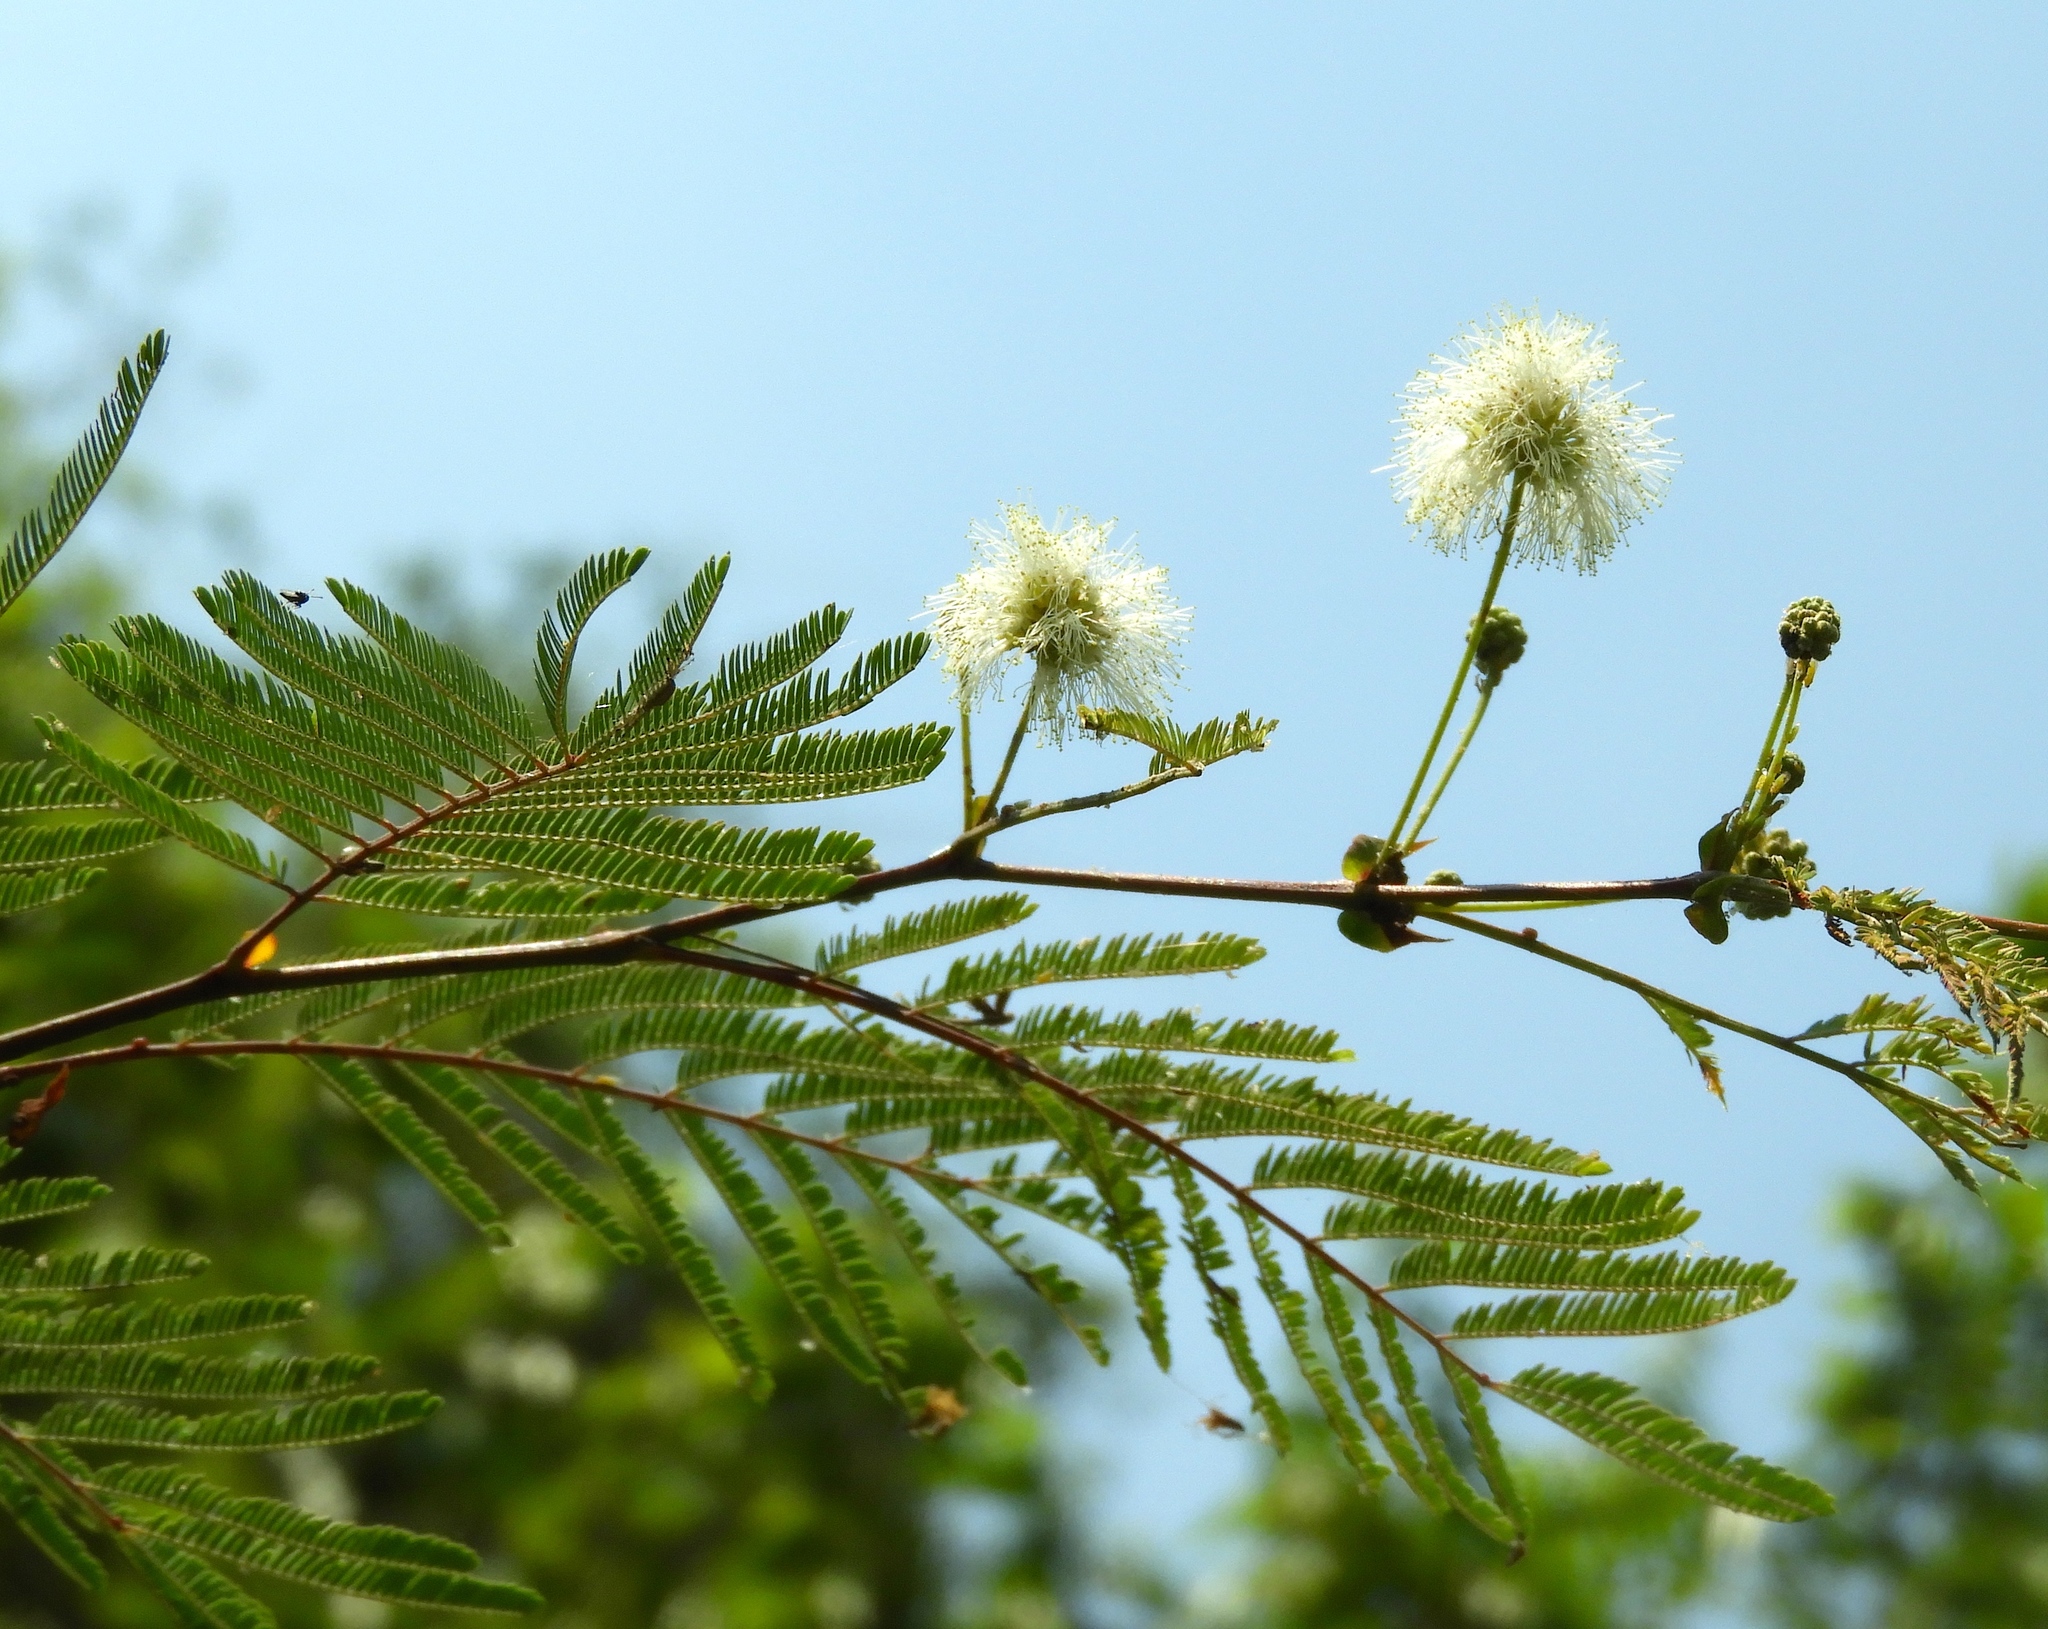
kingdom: Plantae
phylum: Tracheophyta
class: Magnoliopsida
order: Fabales
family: Fabaceae
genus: Lysiloma
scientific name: Lysiloma divaricatum
